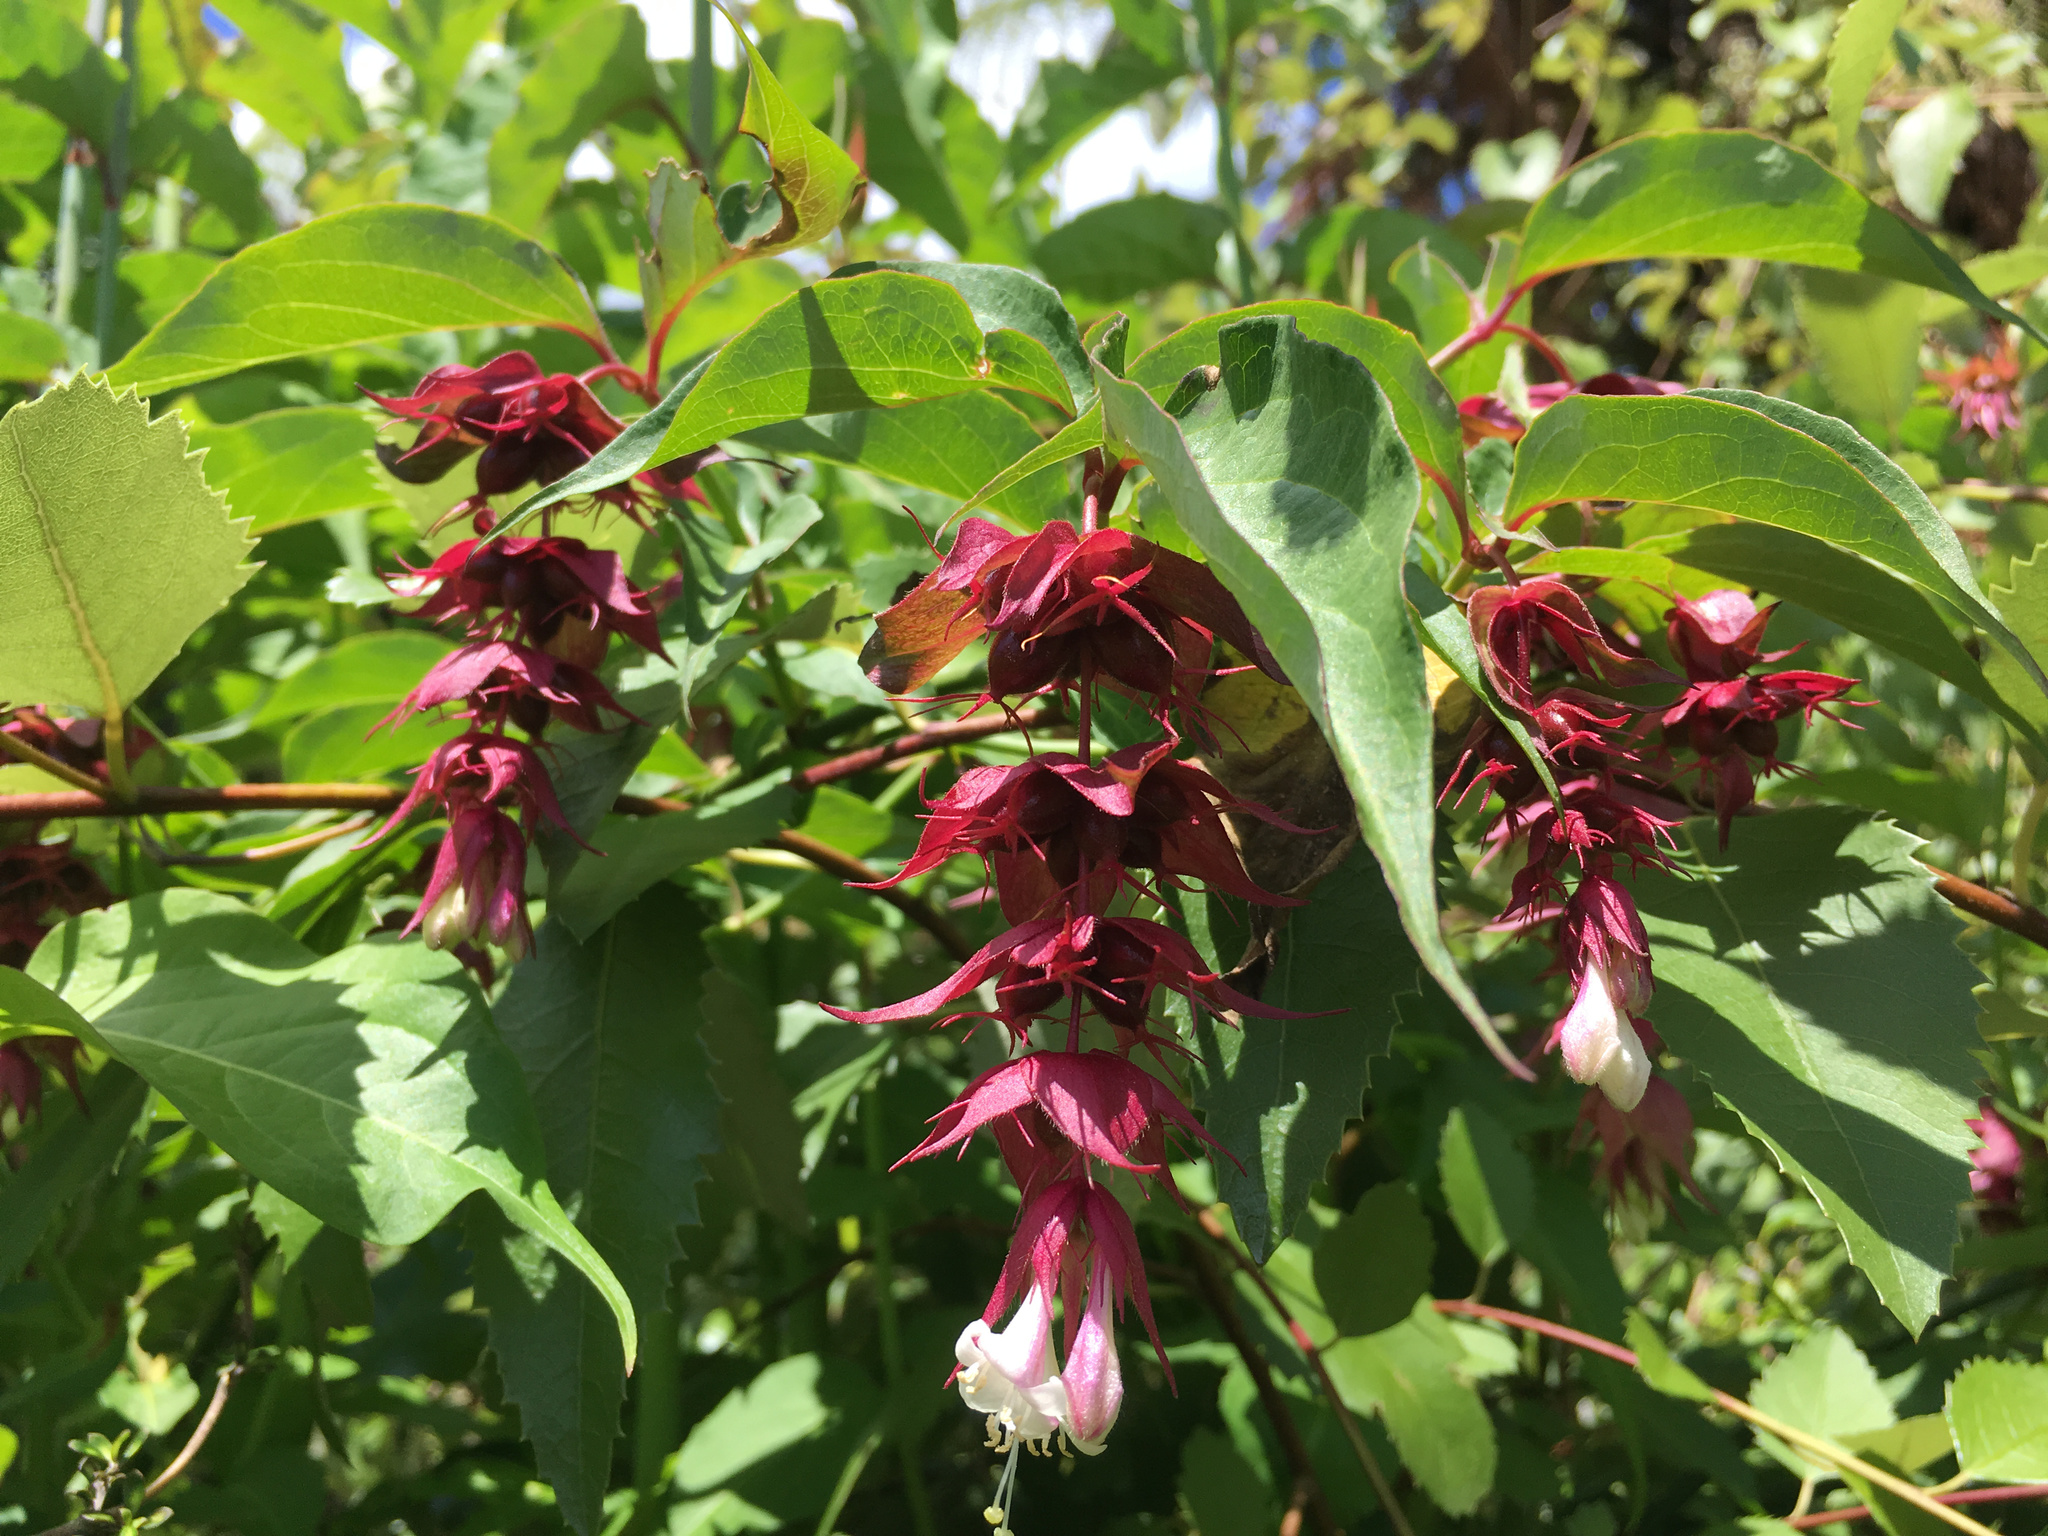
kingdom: Plantae
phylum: Tracheophyta
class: Magnoliopsida
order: Dipsacales
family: Caprifoliaceae
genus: Leycesteria
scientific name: Leycesteria formosa
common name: Himalayan honeysuckle
